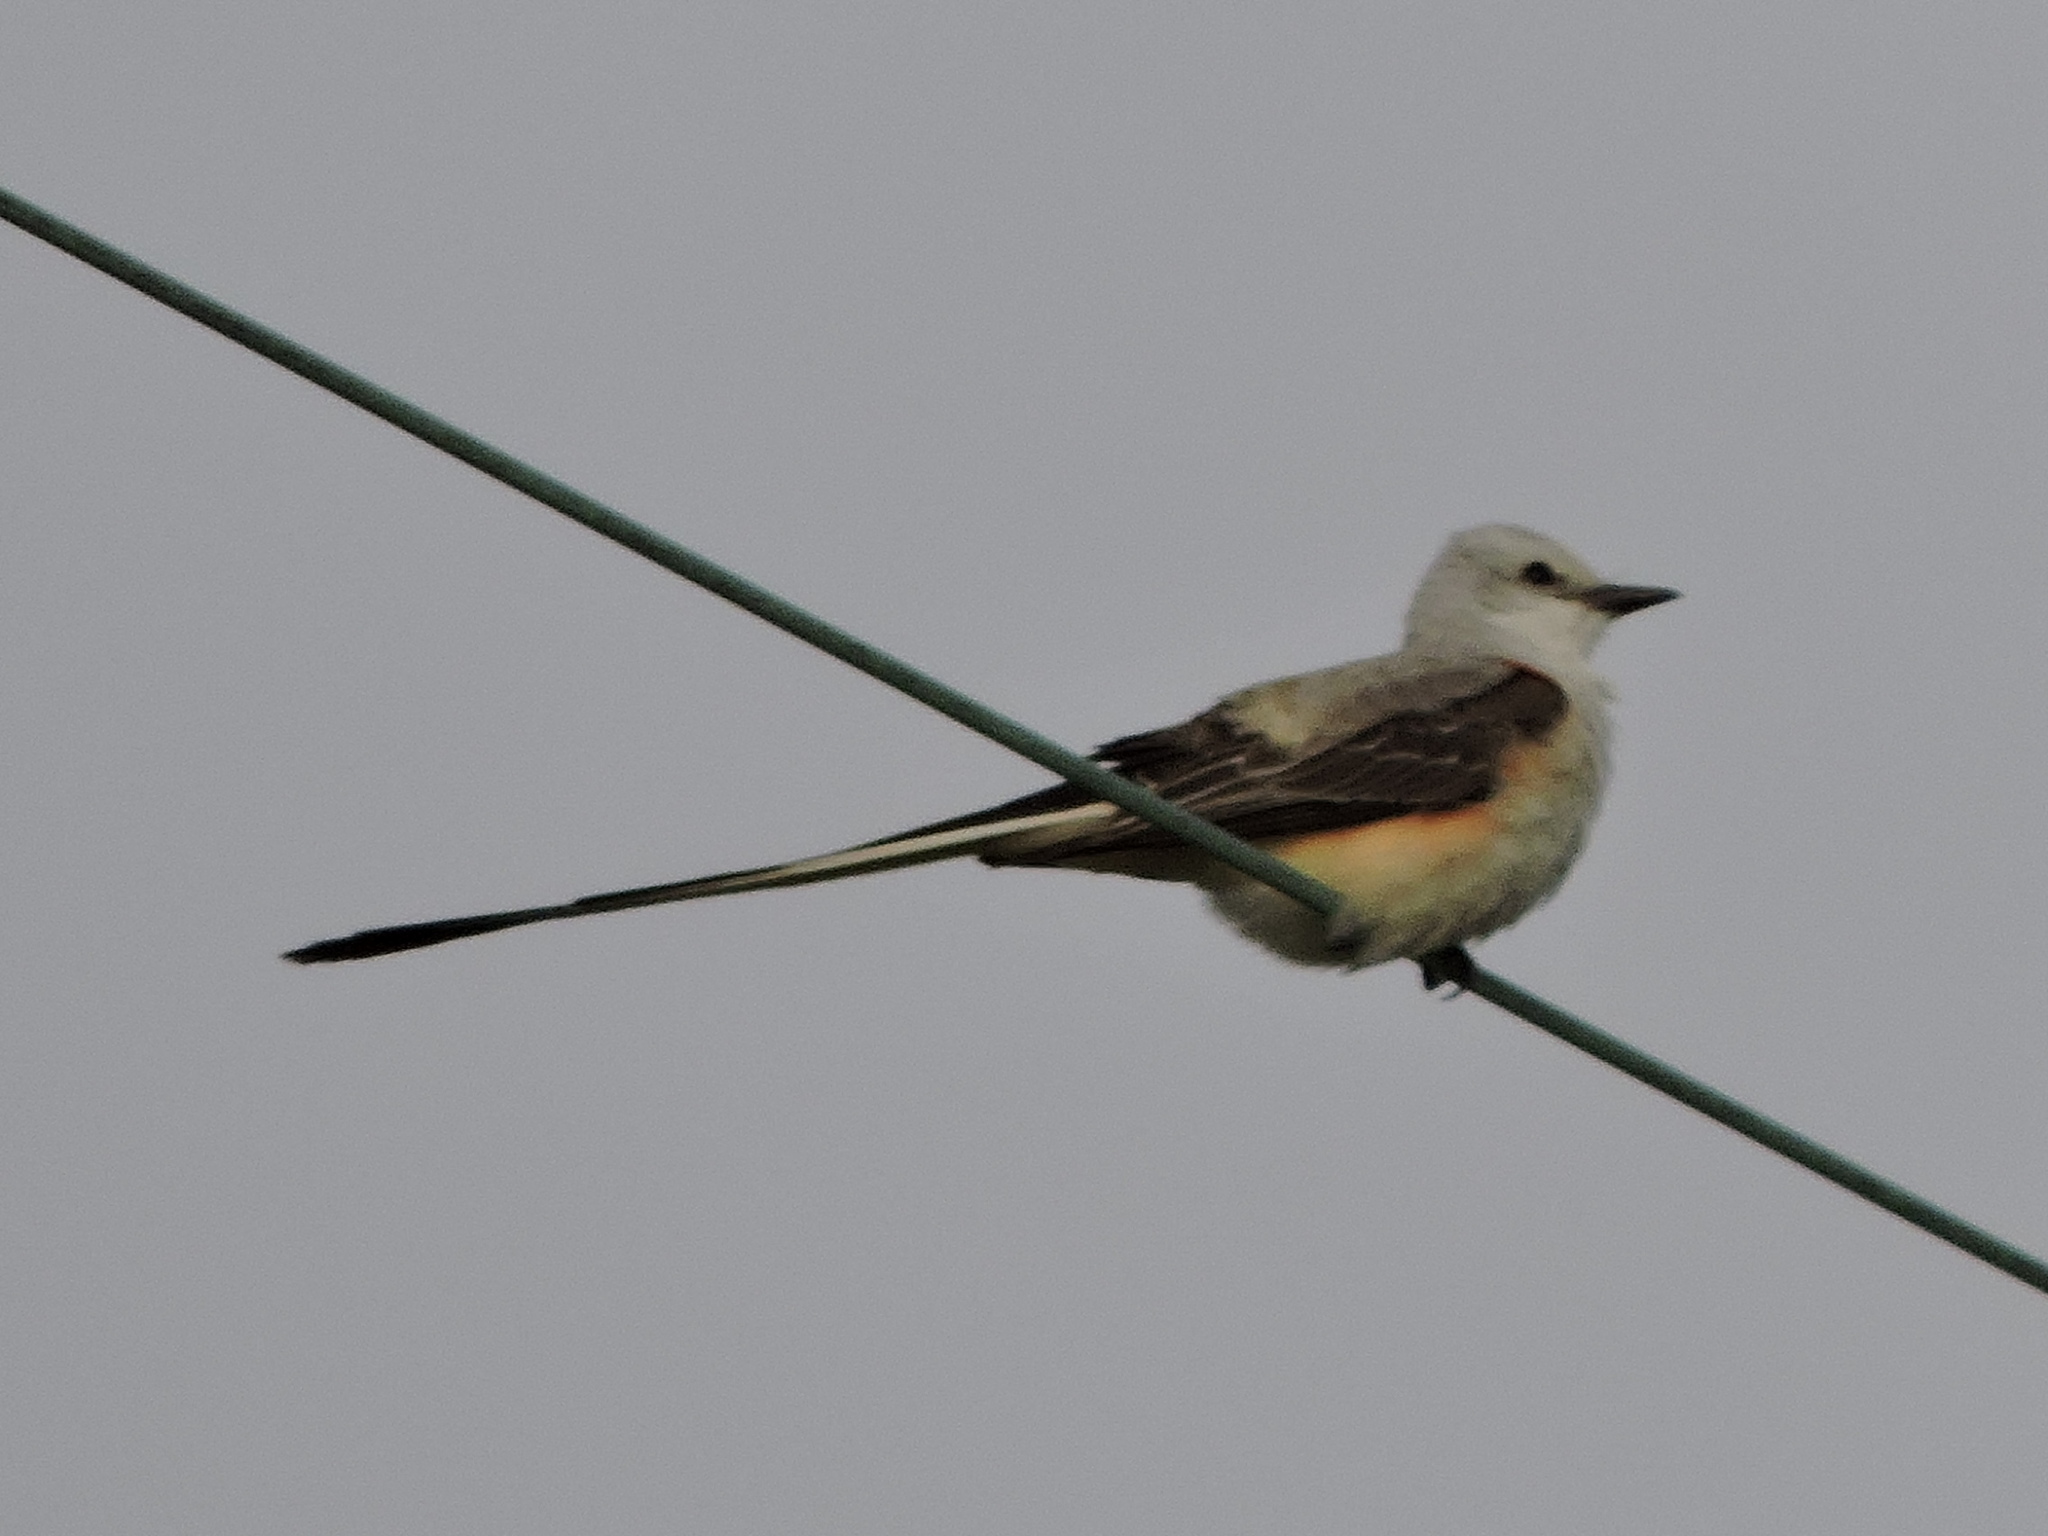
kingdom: Animalia
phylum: Chordata
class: Aves
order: Passeriformes
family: Tyrannidae
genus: Tyrannus
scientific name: Tyrannus forficatus
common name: Scissor-tailed flycatcher
